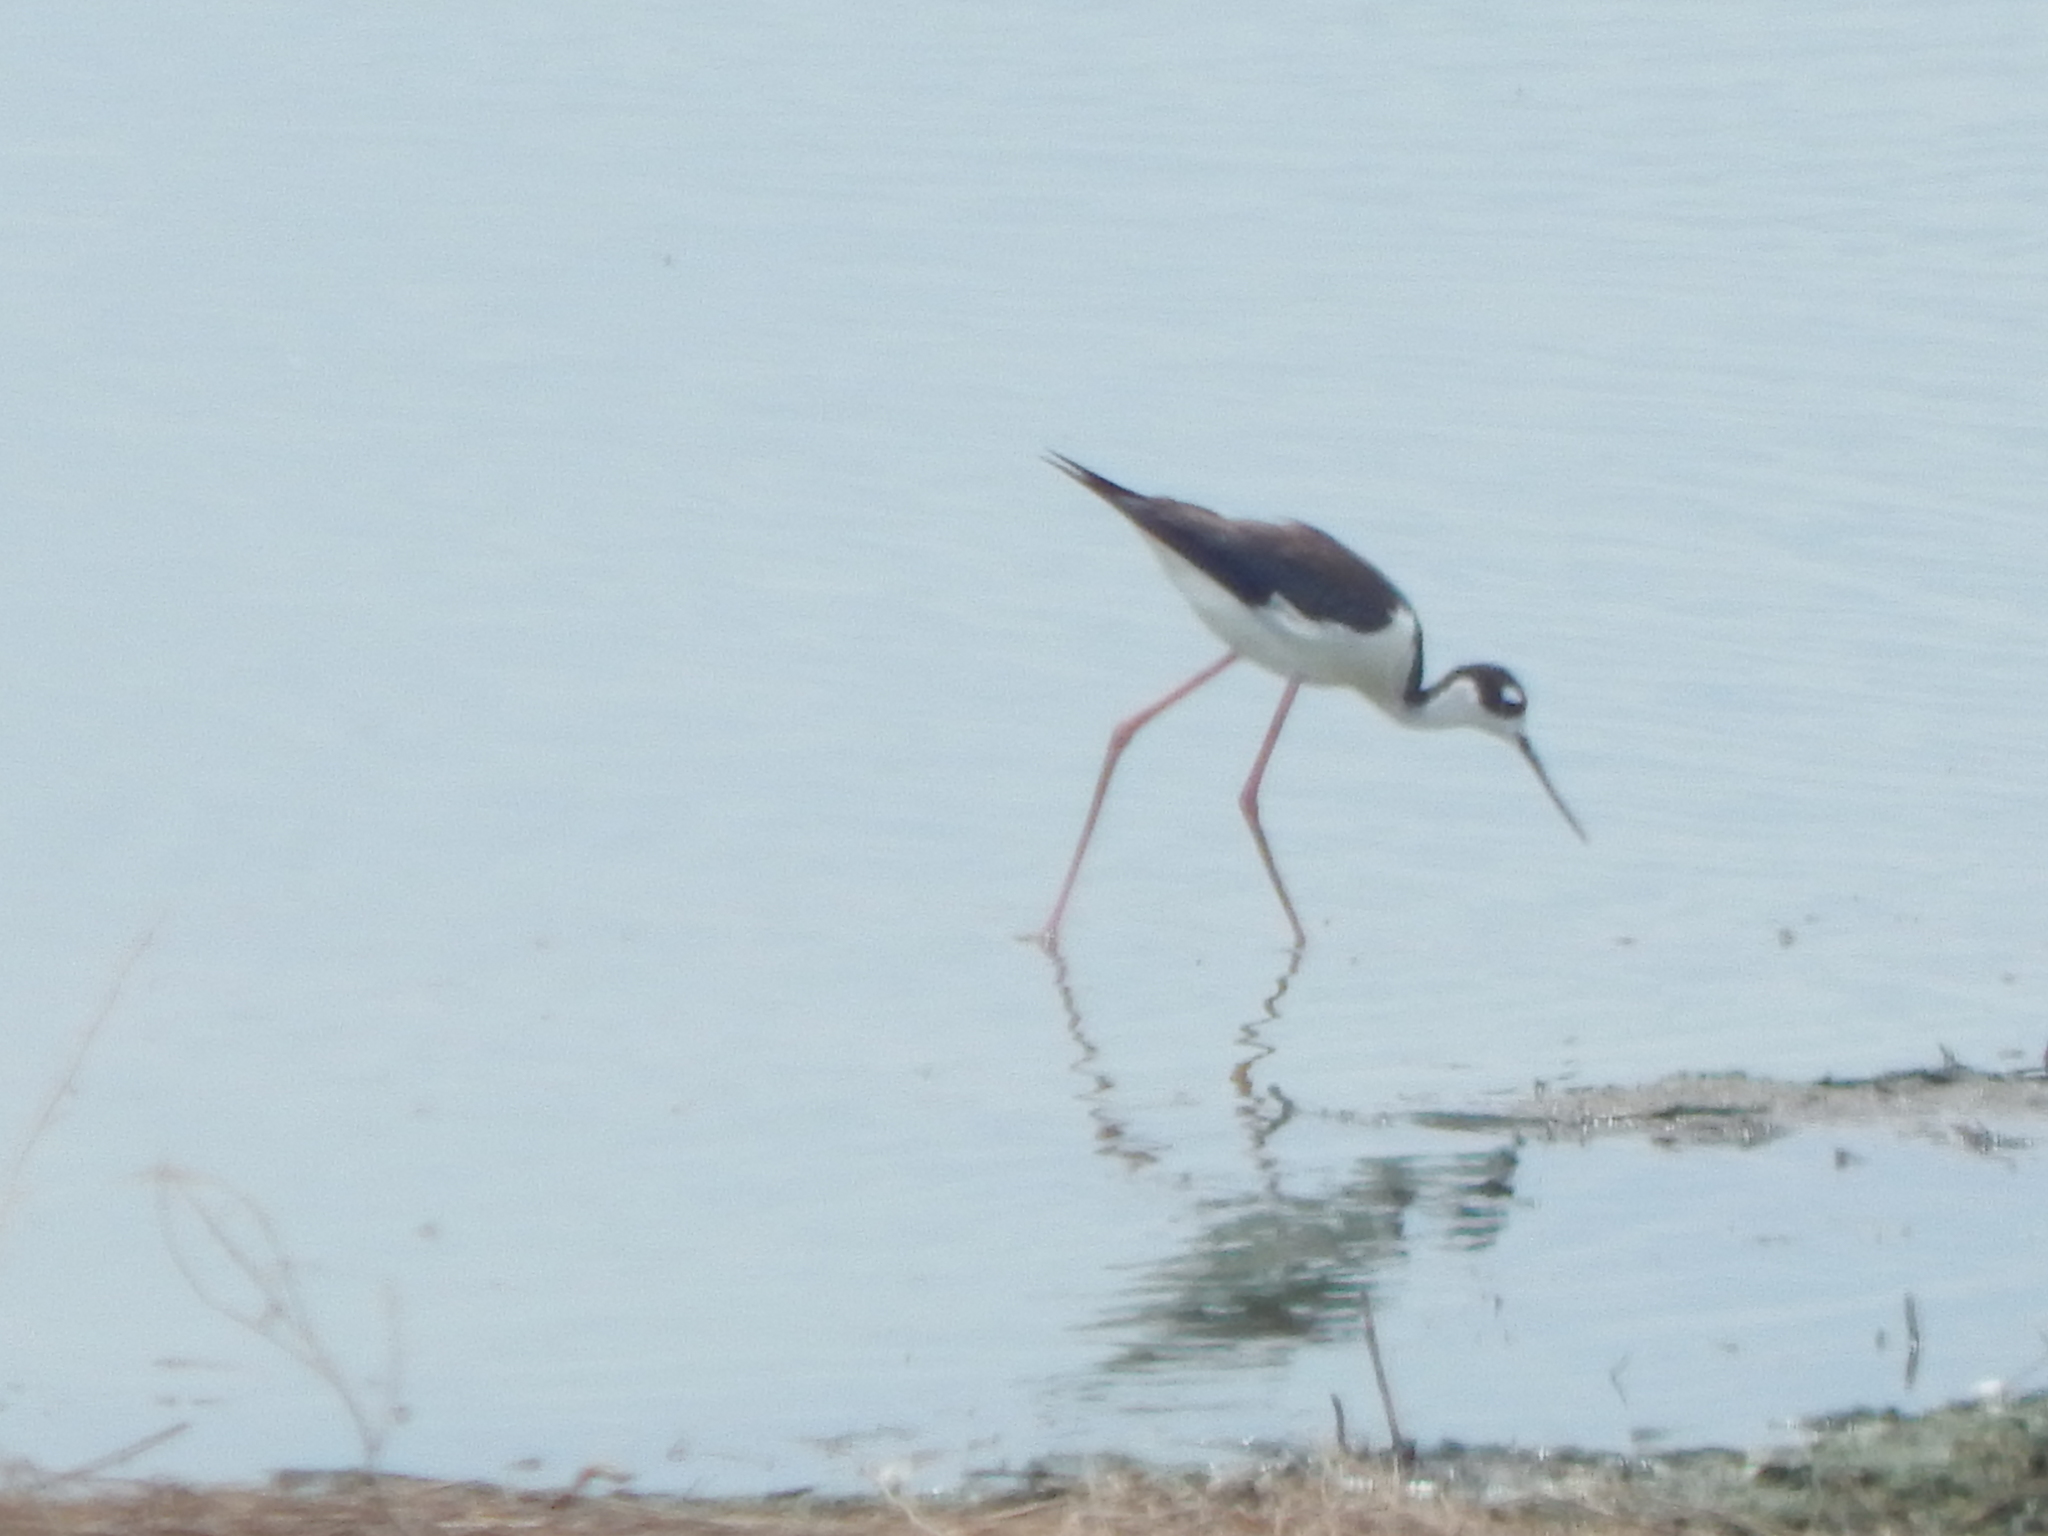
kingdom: Animalia
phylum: Chordata
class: Aves
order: Charadriiformes
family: Recurvirostridae
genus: Himantopus
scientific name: Himantopus mexicanus
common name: Black-necked stilt
